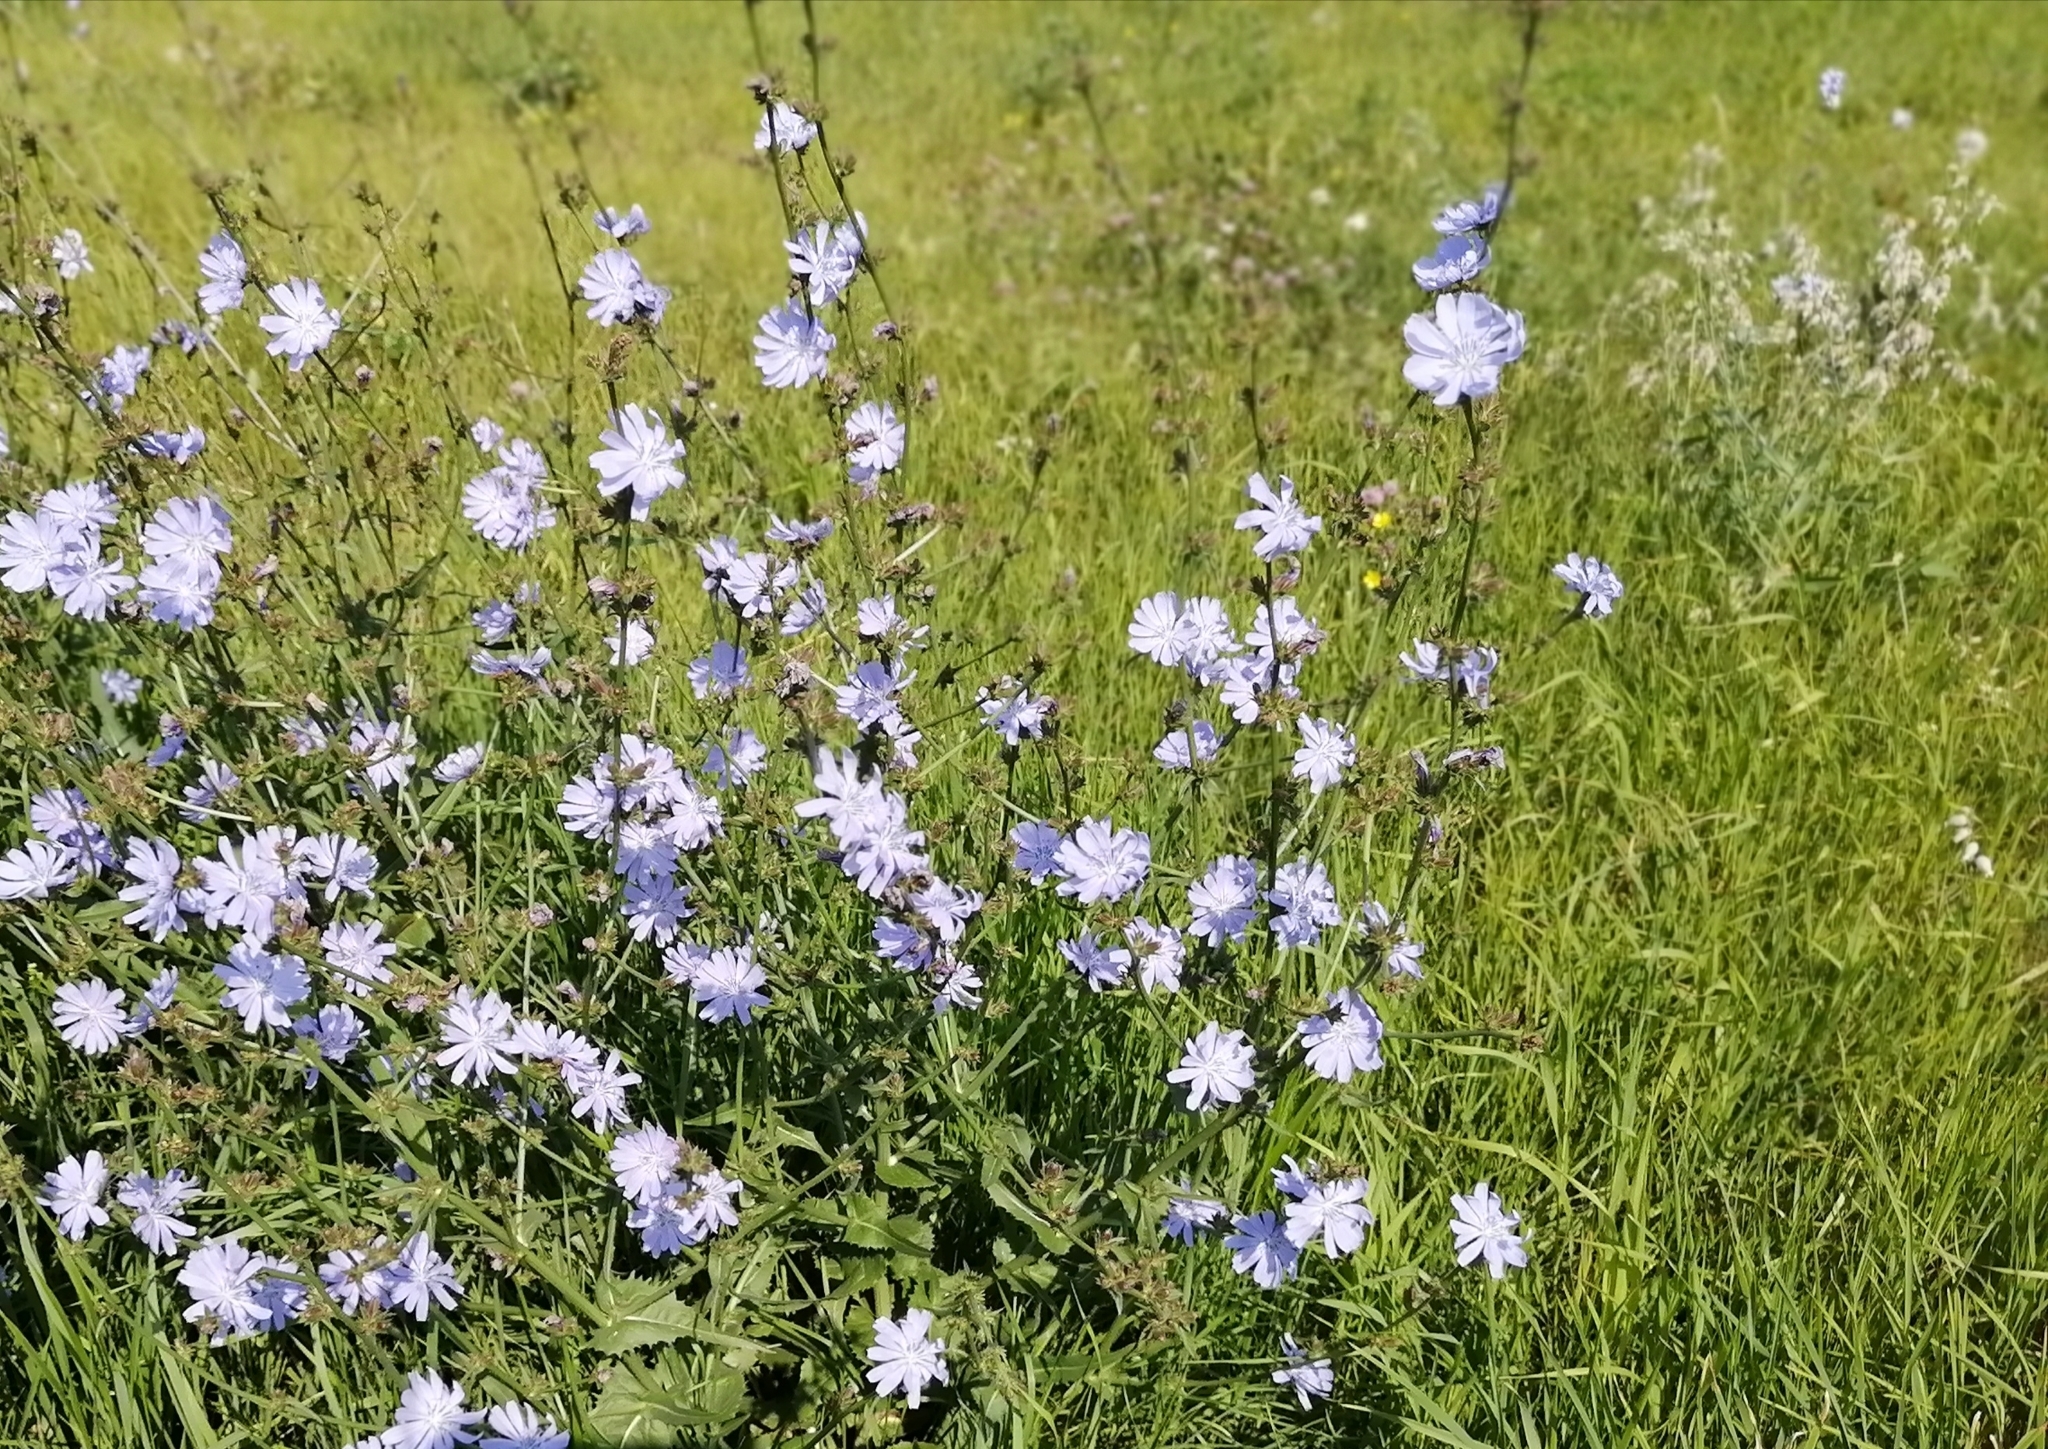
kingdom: Plantae
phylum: Tracheophyta
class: Magnoliopsida
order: Asterales
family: Asteraceae
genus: Cichorium
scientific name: Cichorium intybus
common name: Chicory
